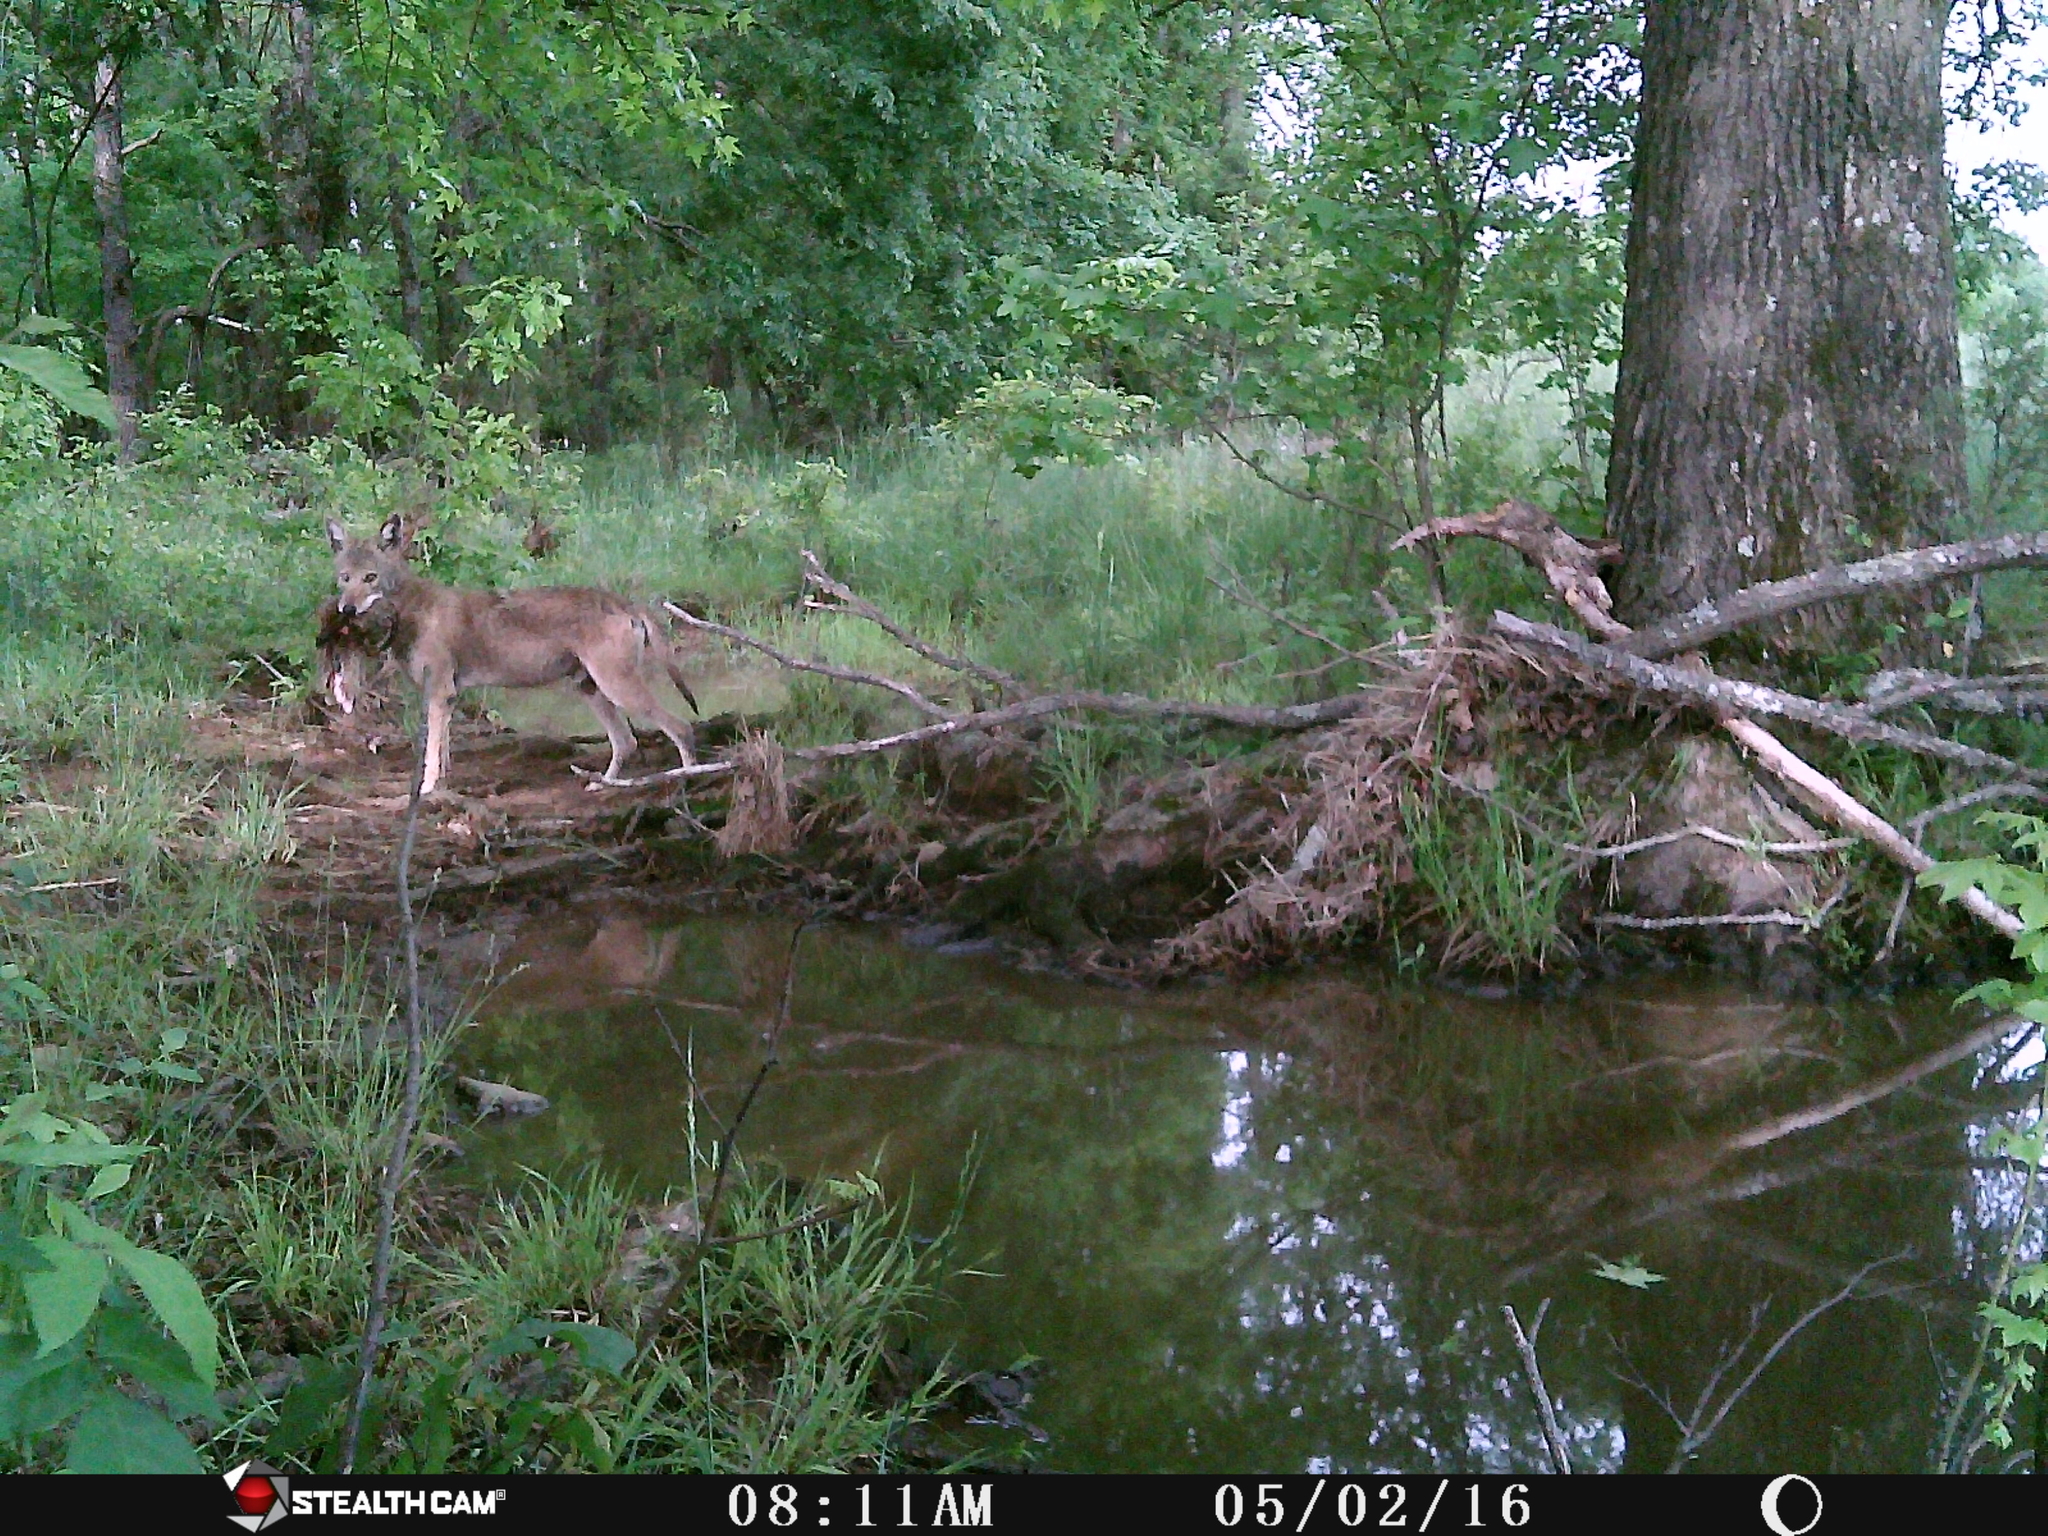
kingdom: Animalia
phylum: Chordata
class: Mammalia
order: Carnivora
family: Canidae
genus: Canis
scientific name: Canis latrans
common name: Coyote
